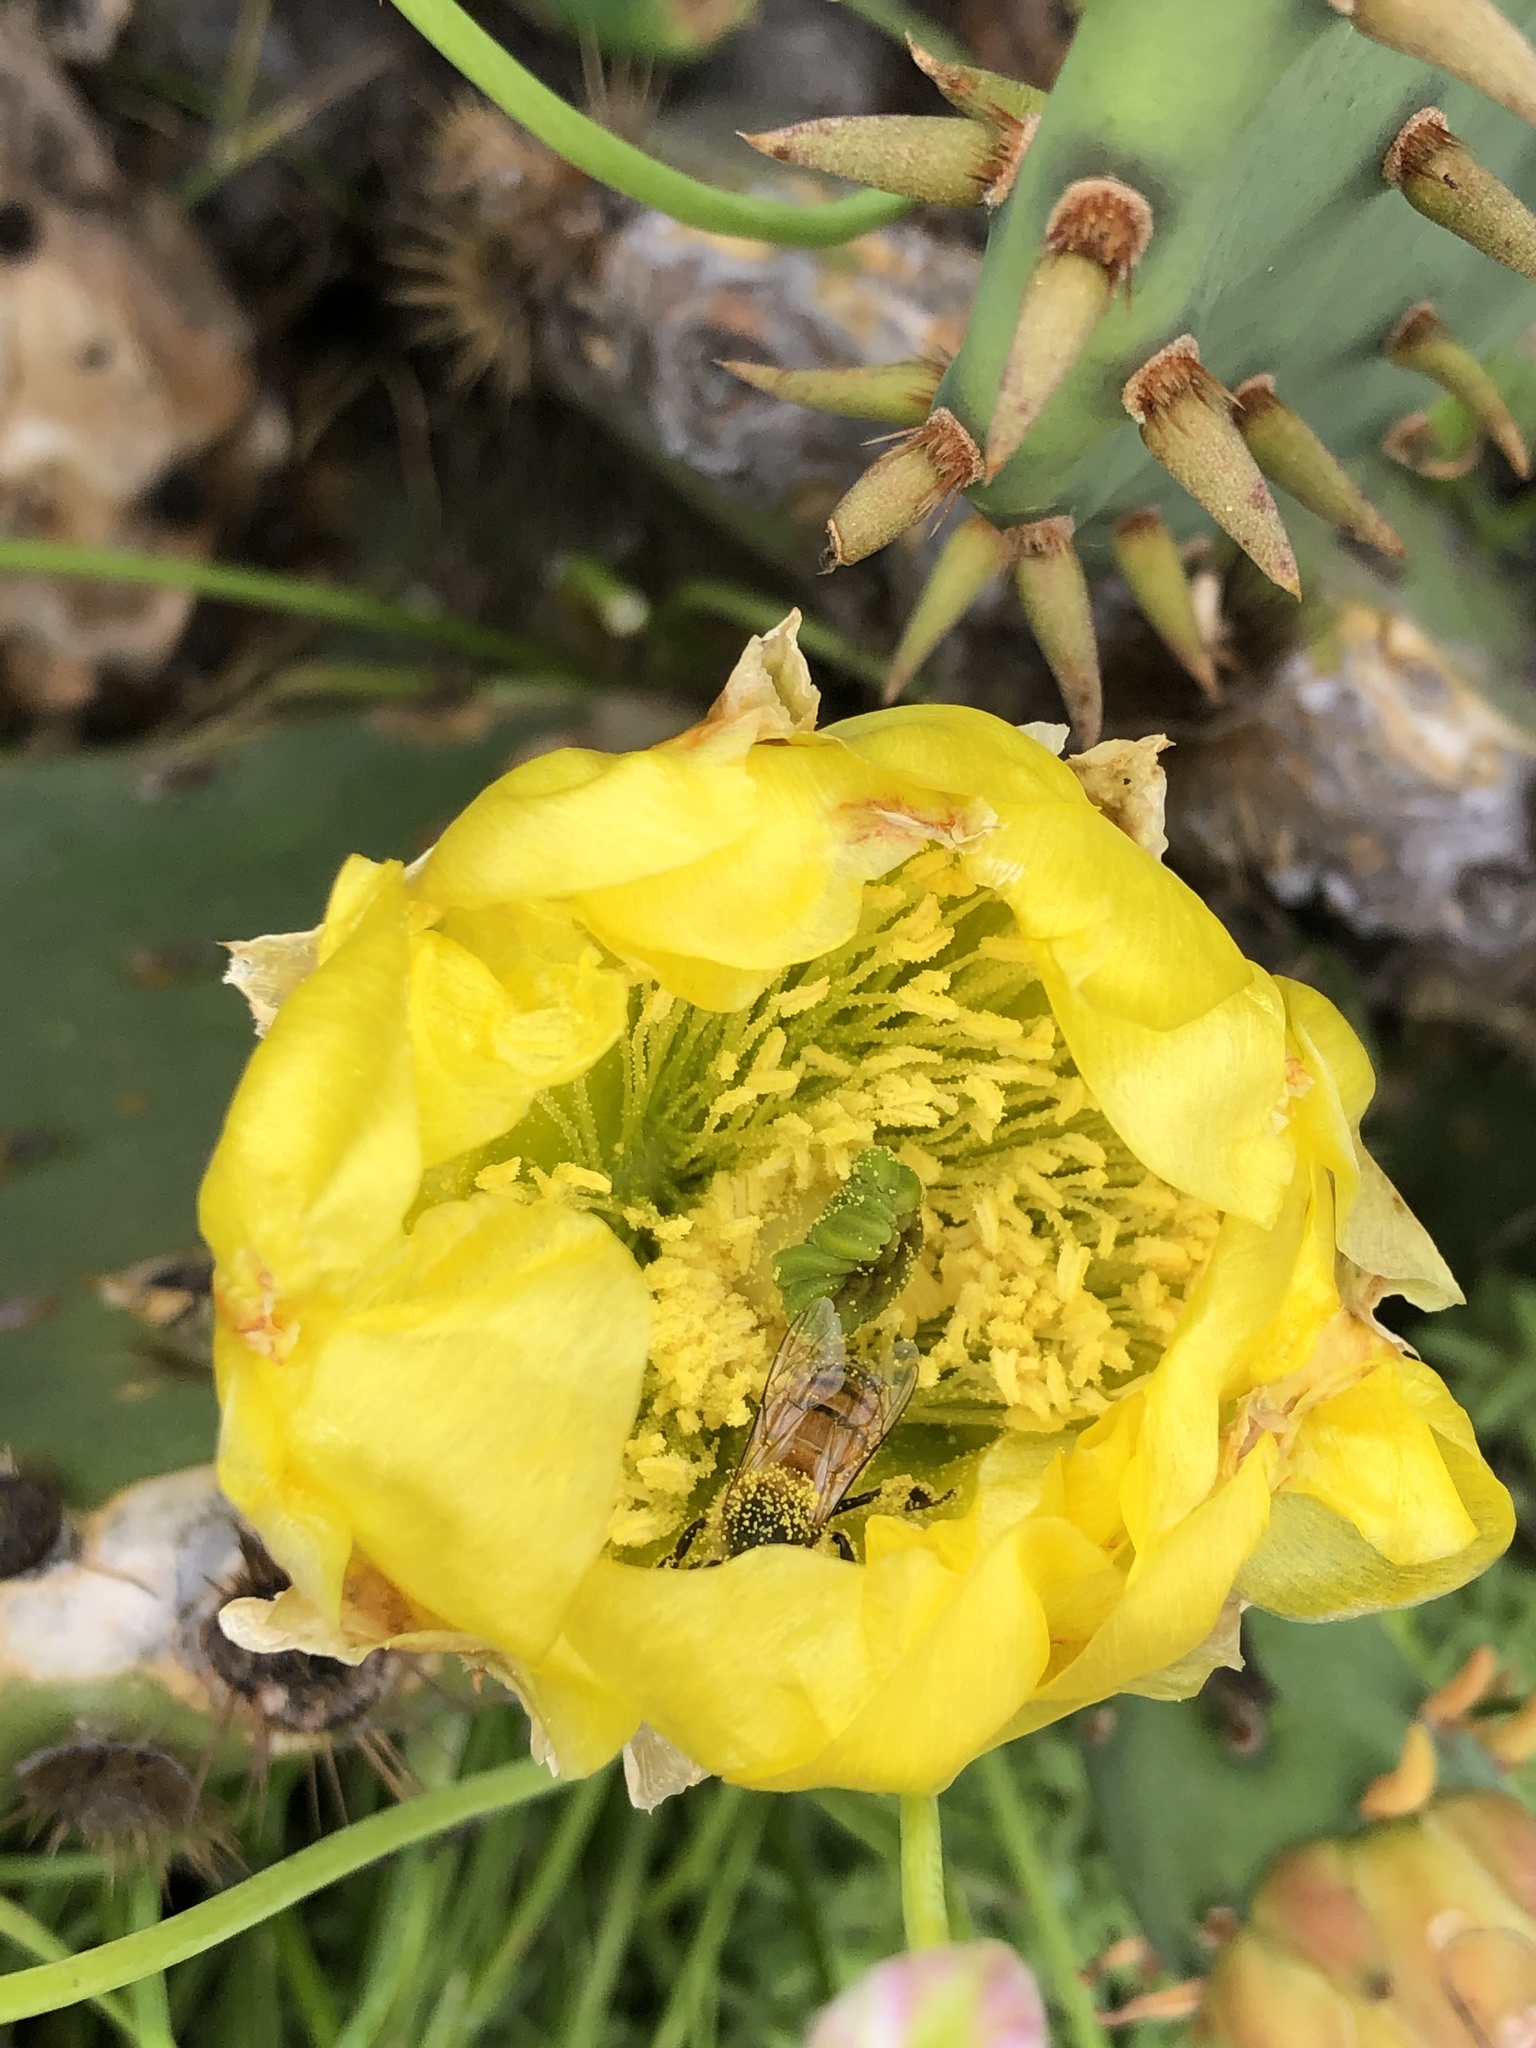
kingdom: Animalia
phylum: Arthropoda
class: Insecta
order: Hymenoptera
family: Apidae
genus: Apis
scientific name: Apis mellifera
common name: Honey bee
